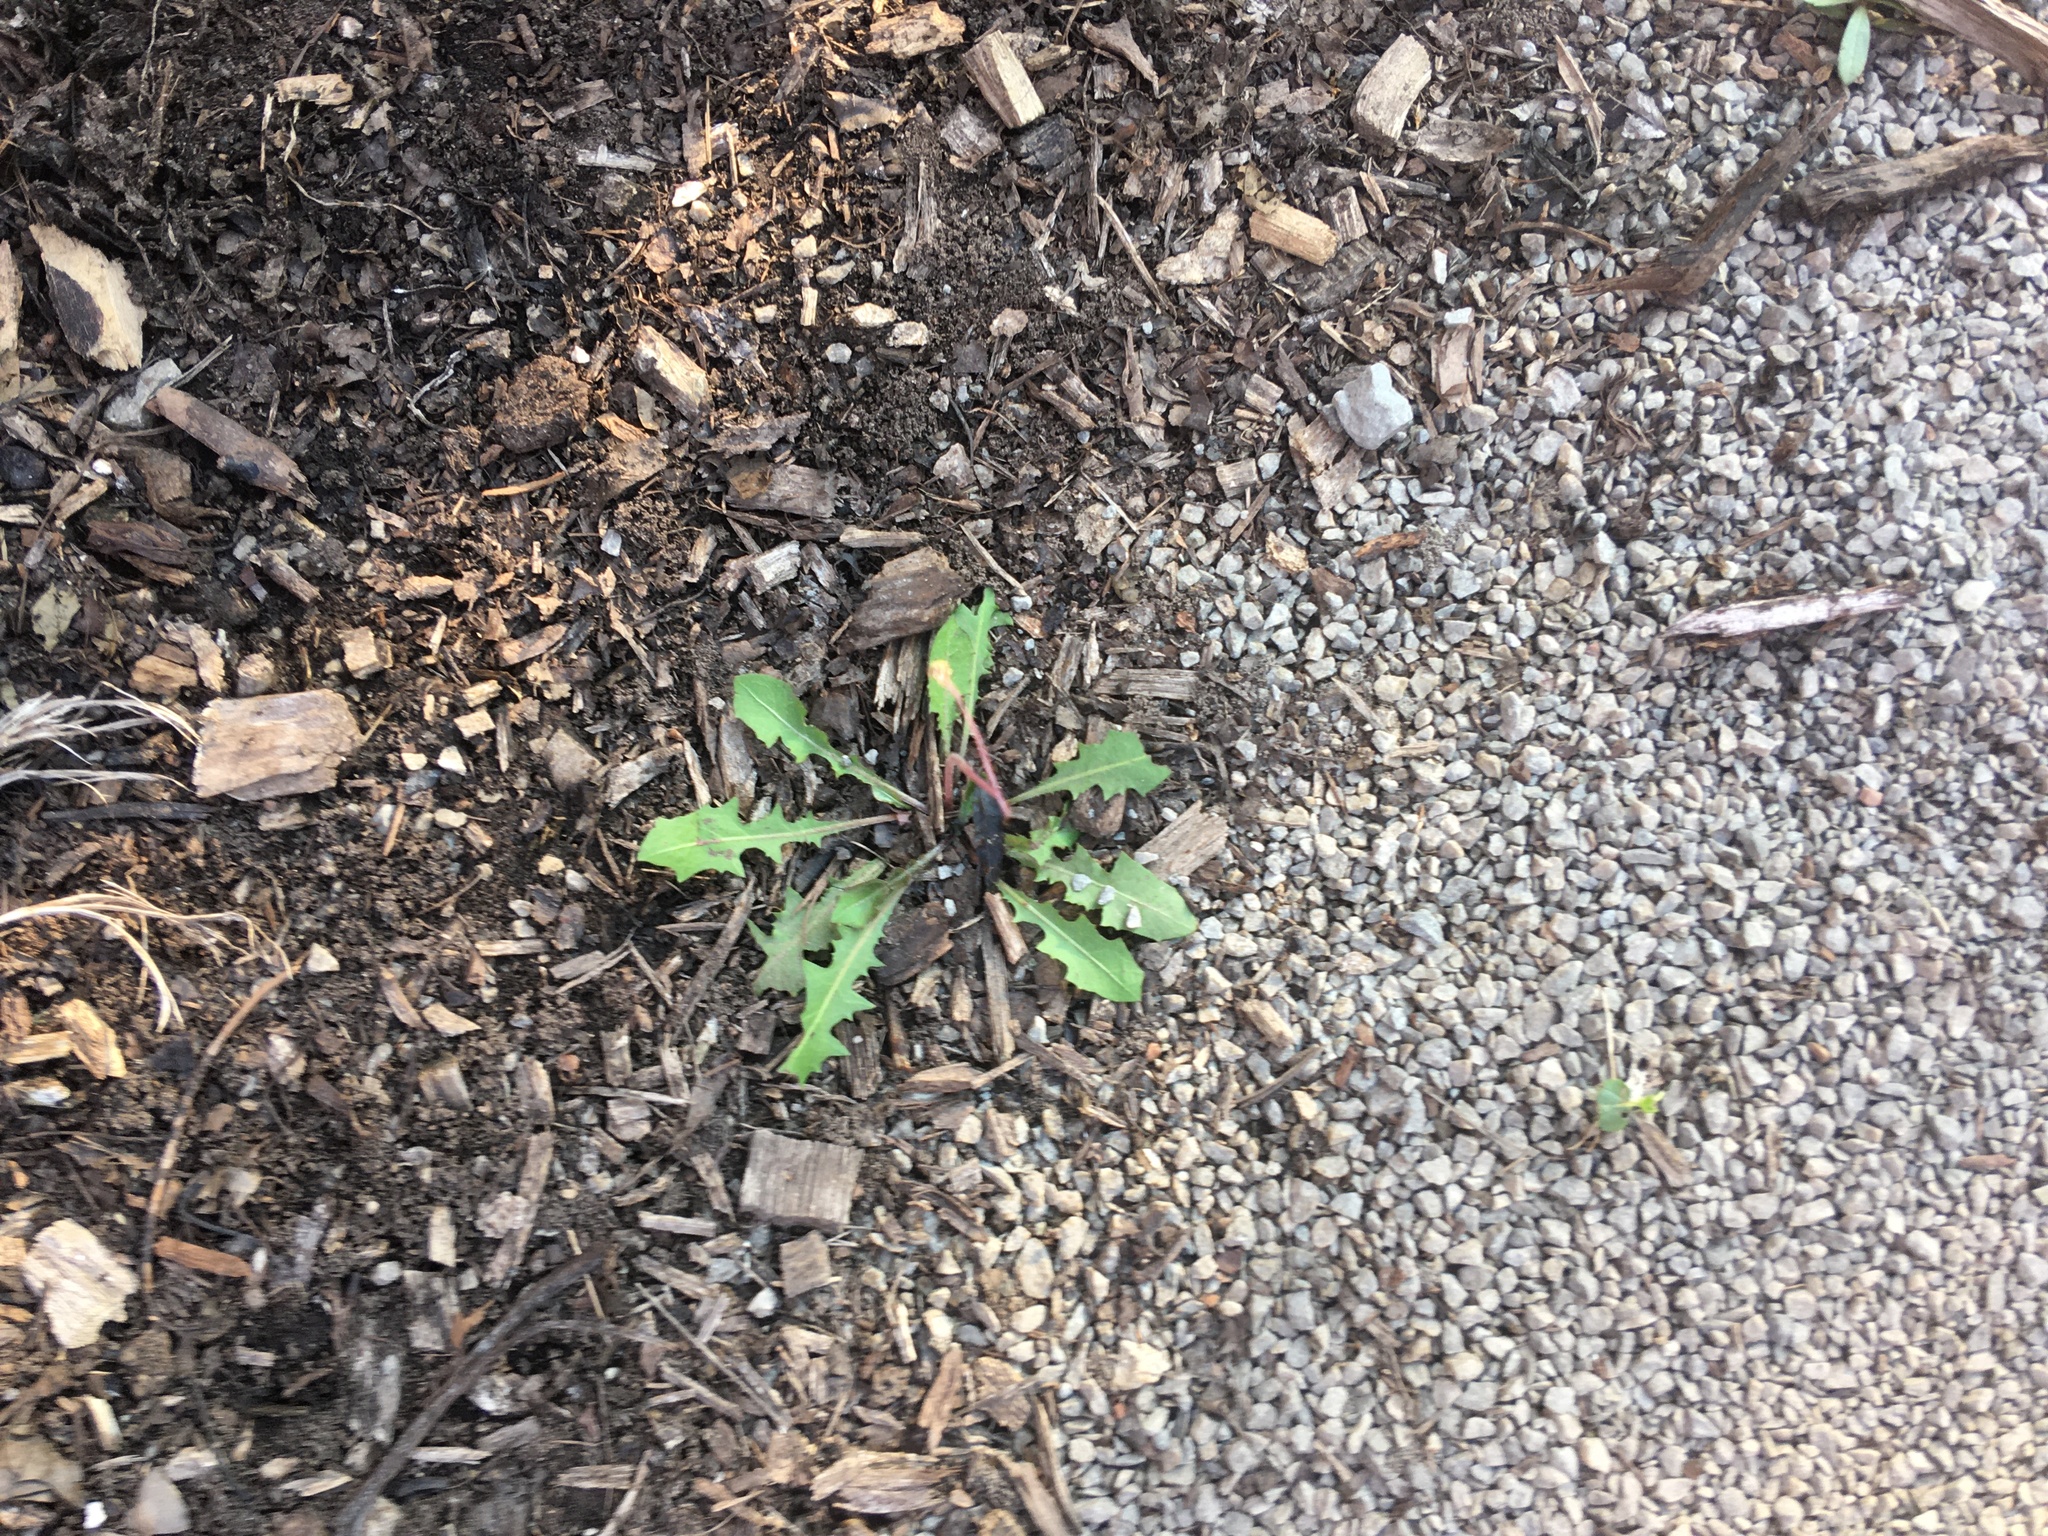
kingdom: Plantae
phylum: Tracheophyta
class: Magnoliopsida
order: Asterales
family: Asteraceae
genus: Taraxacum
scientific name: Taraxacum officinale
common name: Common dandelion
